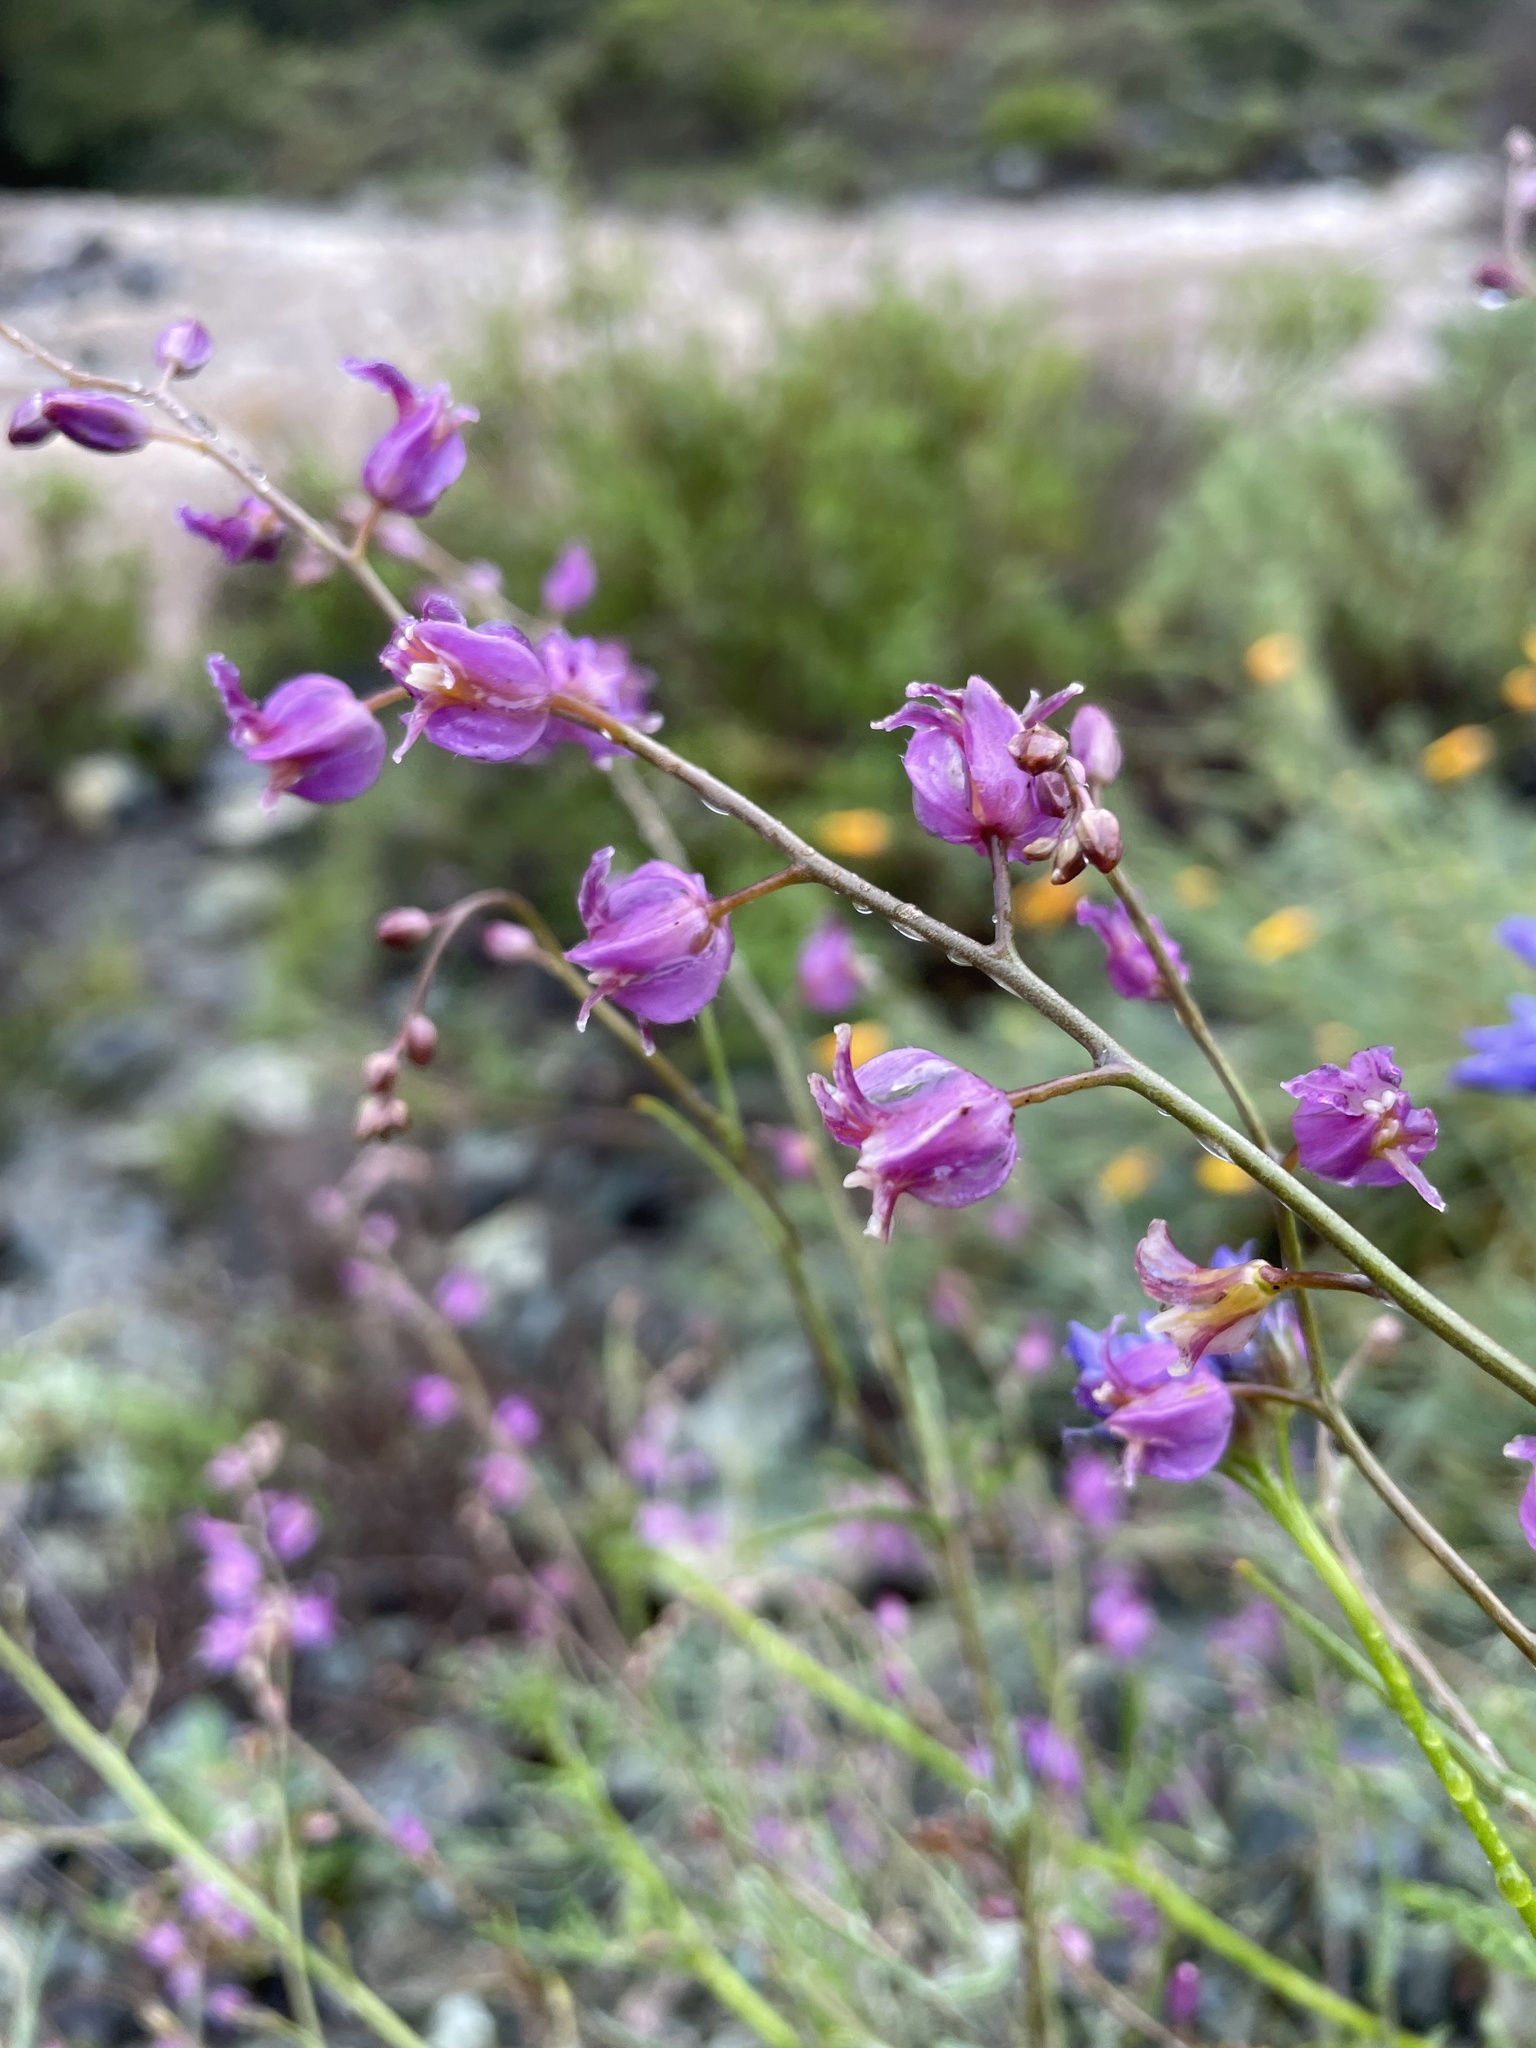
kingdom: Plantae
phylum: Tracheophyta
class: Magnoliopsida
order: Brassicales
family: Brassicaceae
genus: Streptanthus
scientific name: Streptanthus glandulosus
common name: Jewel-flower
